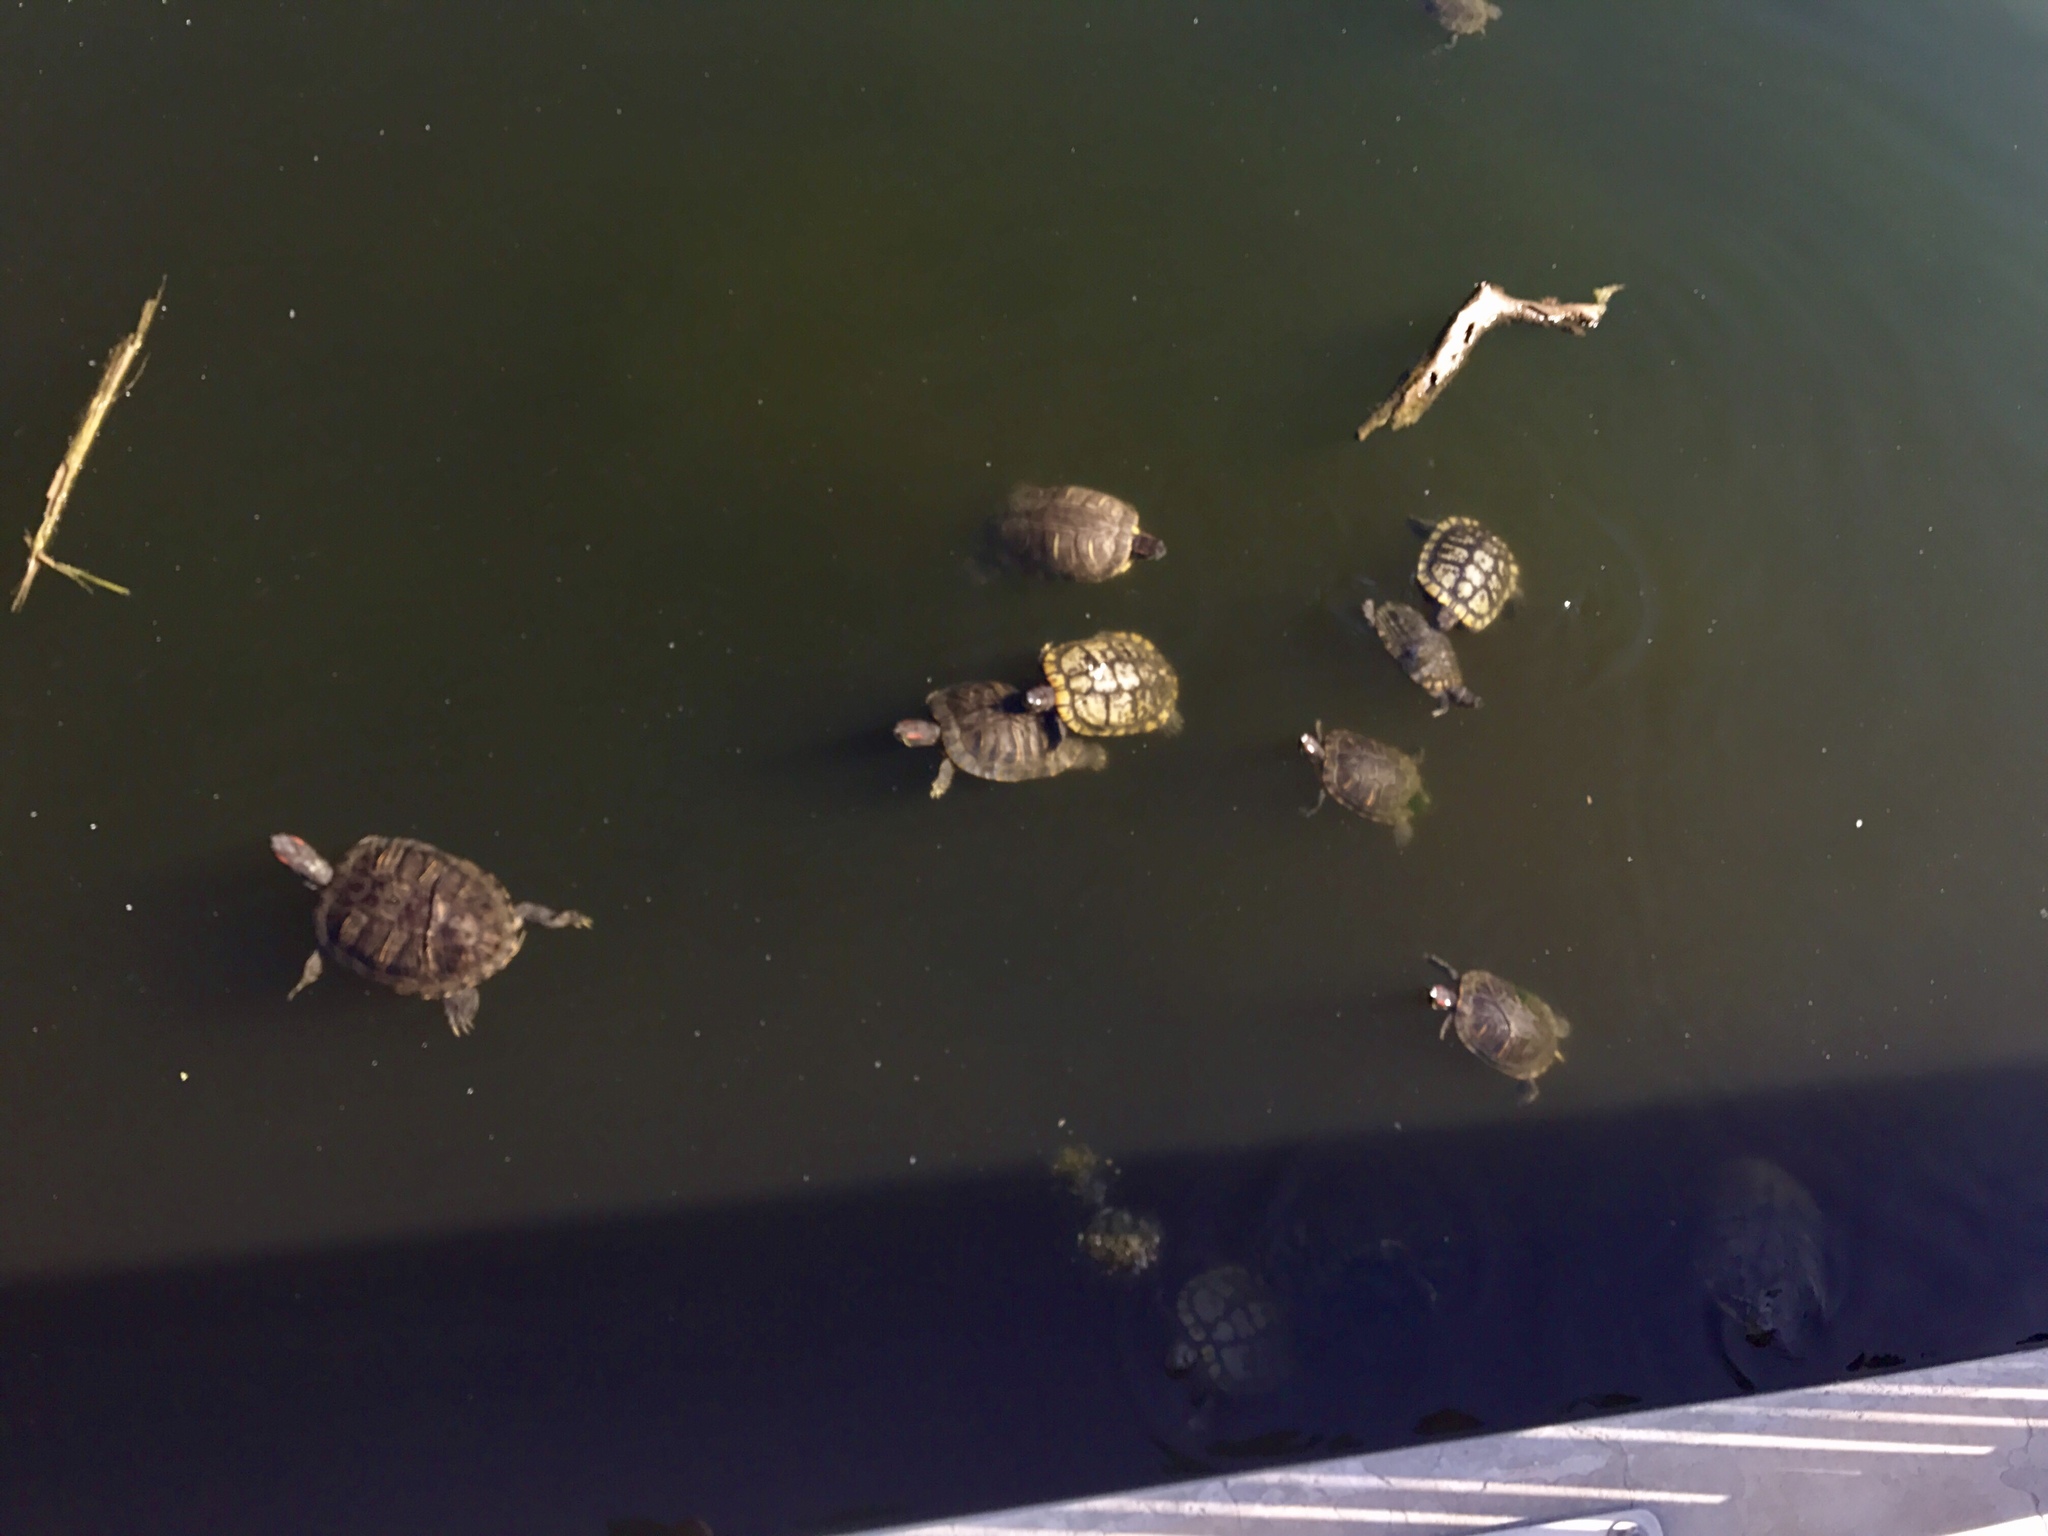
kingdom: Animalia
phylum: Chordata
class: Testudines
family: Emydidae
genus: Trachemys
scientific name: Trachemys scripta
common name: Slider
